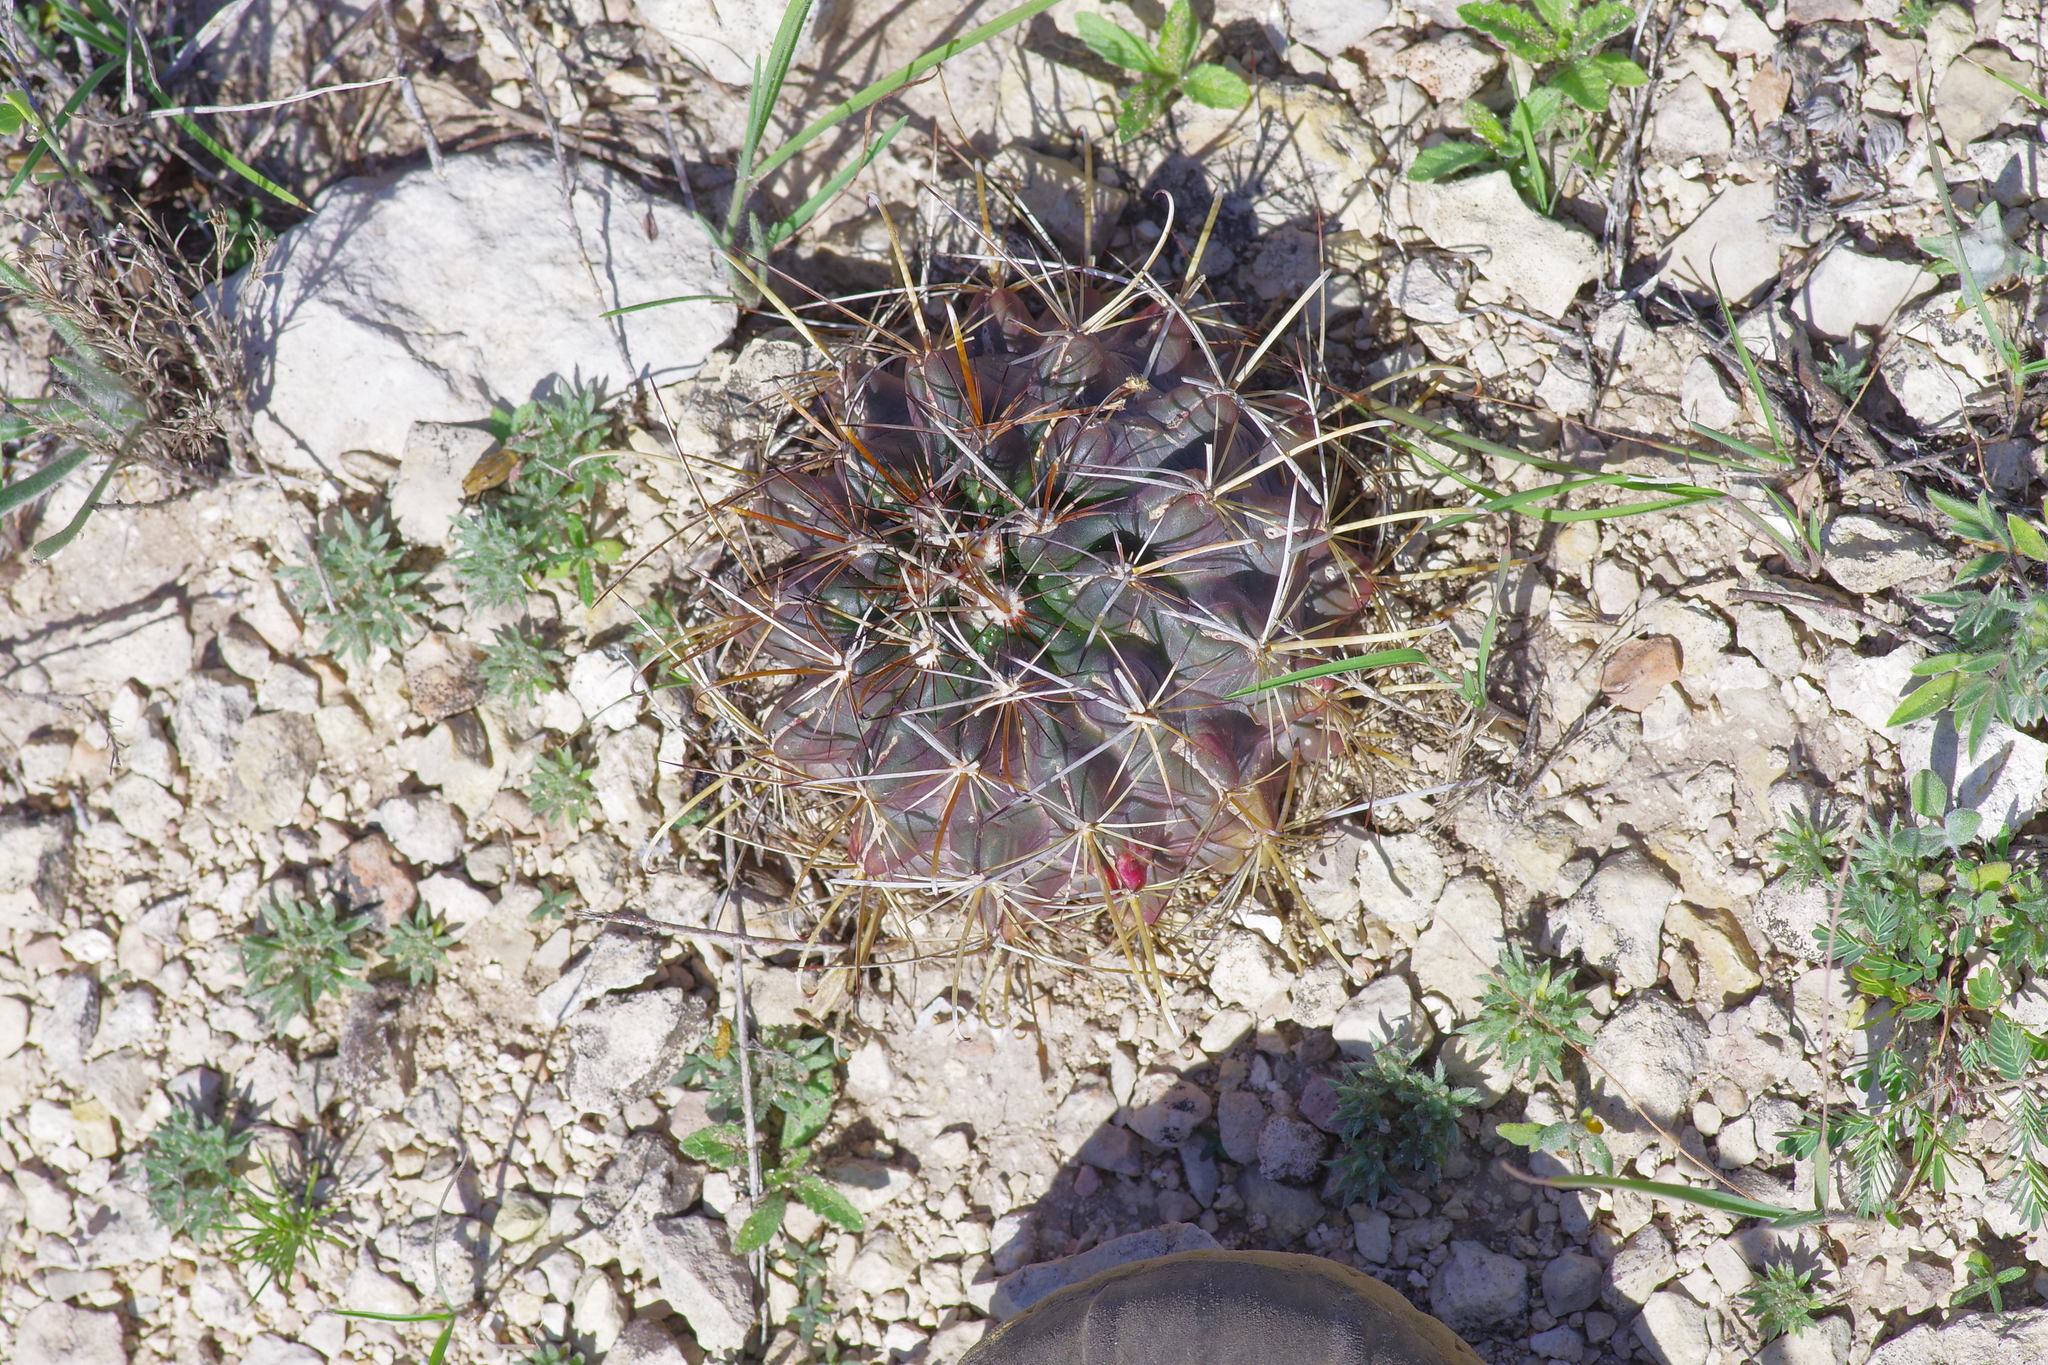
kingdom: Plantae
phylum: Tracheophyta
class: Magnoliopsida
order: Caryophyllales
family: Cactaceae
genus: Sclerocactus
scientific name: Sclerocactus brevihamatus
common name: Engelmann's fishhook cactus
